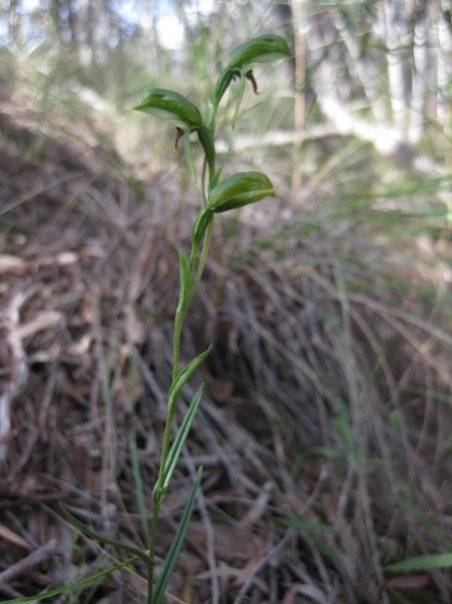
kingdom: Plantae
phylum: Tracheophyta
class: Liliopsida
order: Asparagales
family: Orchidaceae
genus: Pterostylis
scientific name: Pterostylis umbrina
